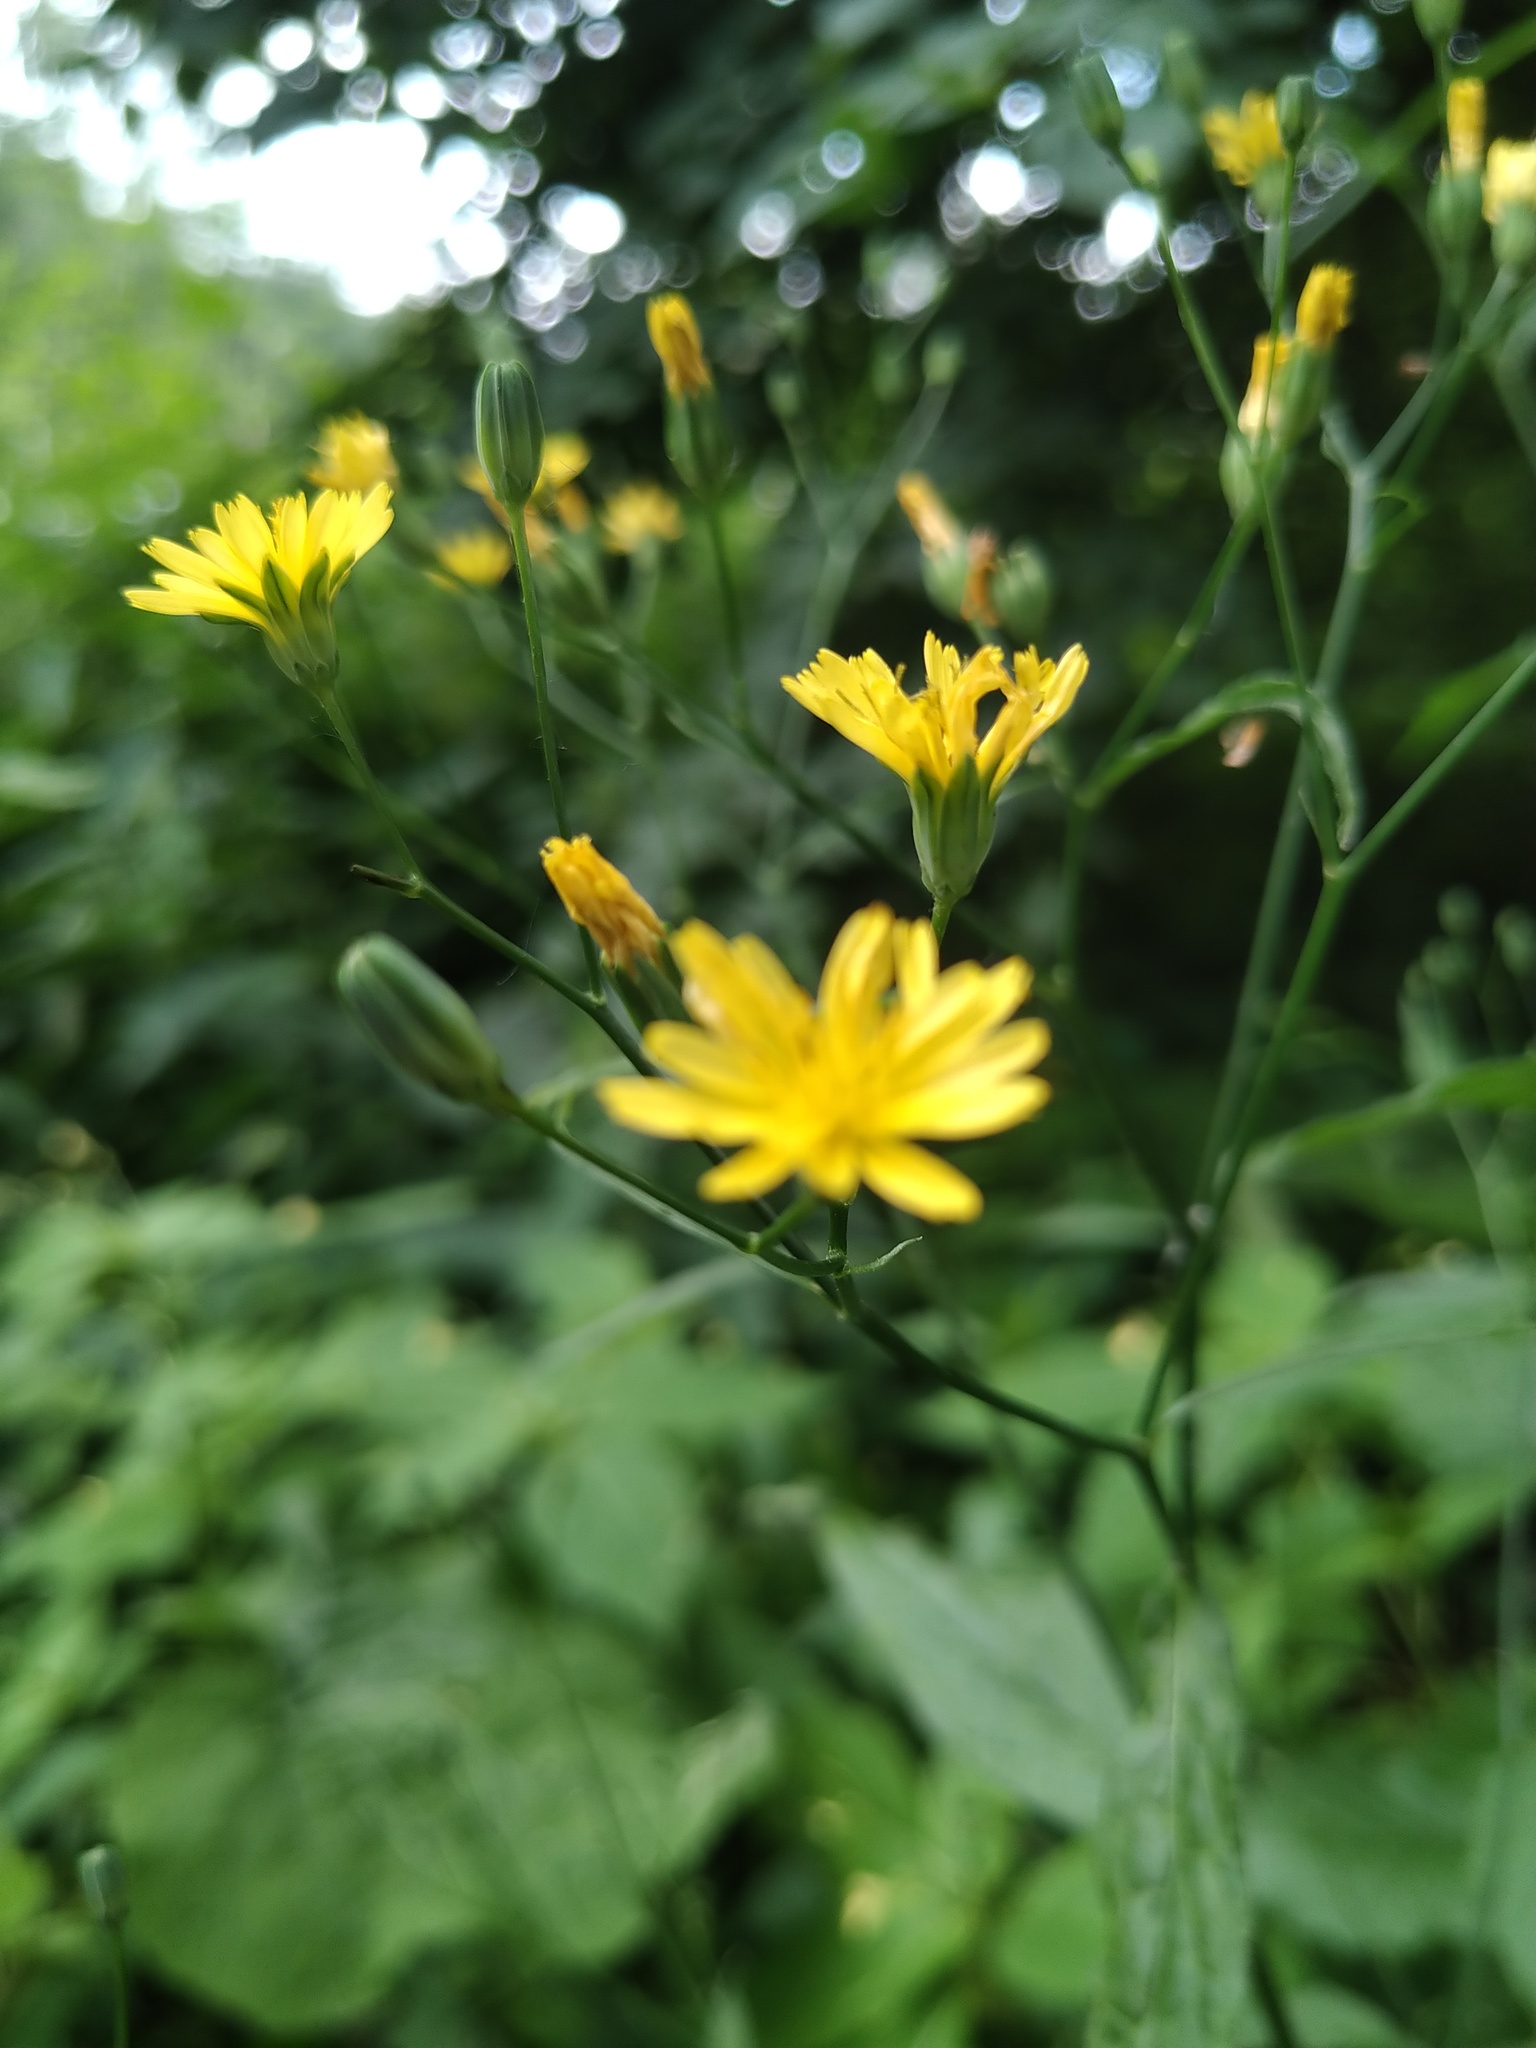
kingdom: Plantae
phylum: Tracheophyta
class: Magnoliopsida
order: Asterales
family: Asteraceae
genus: Lapsana
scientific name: Lapsana communis
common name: Nipplewort
